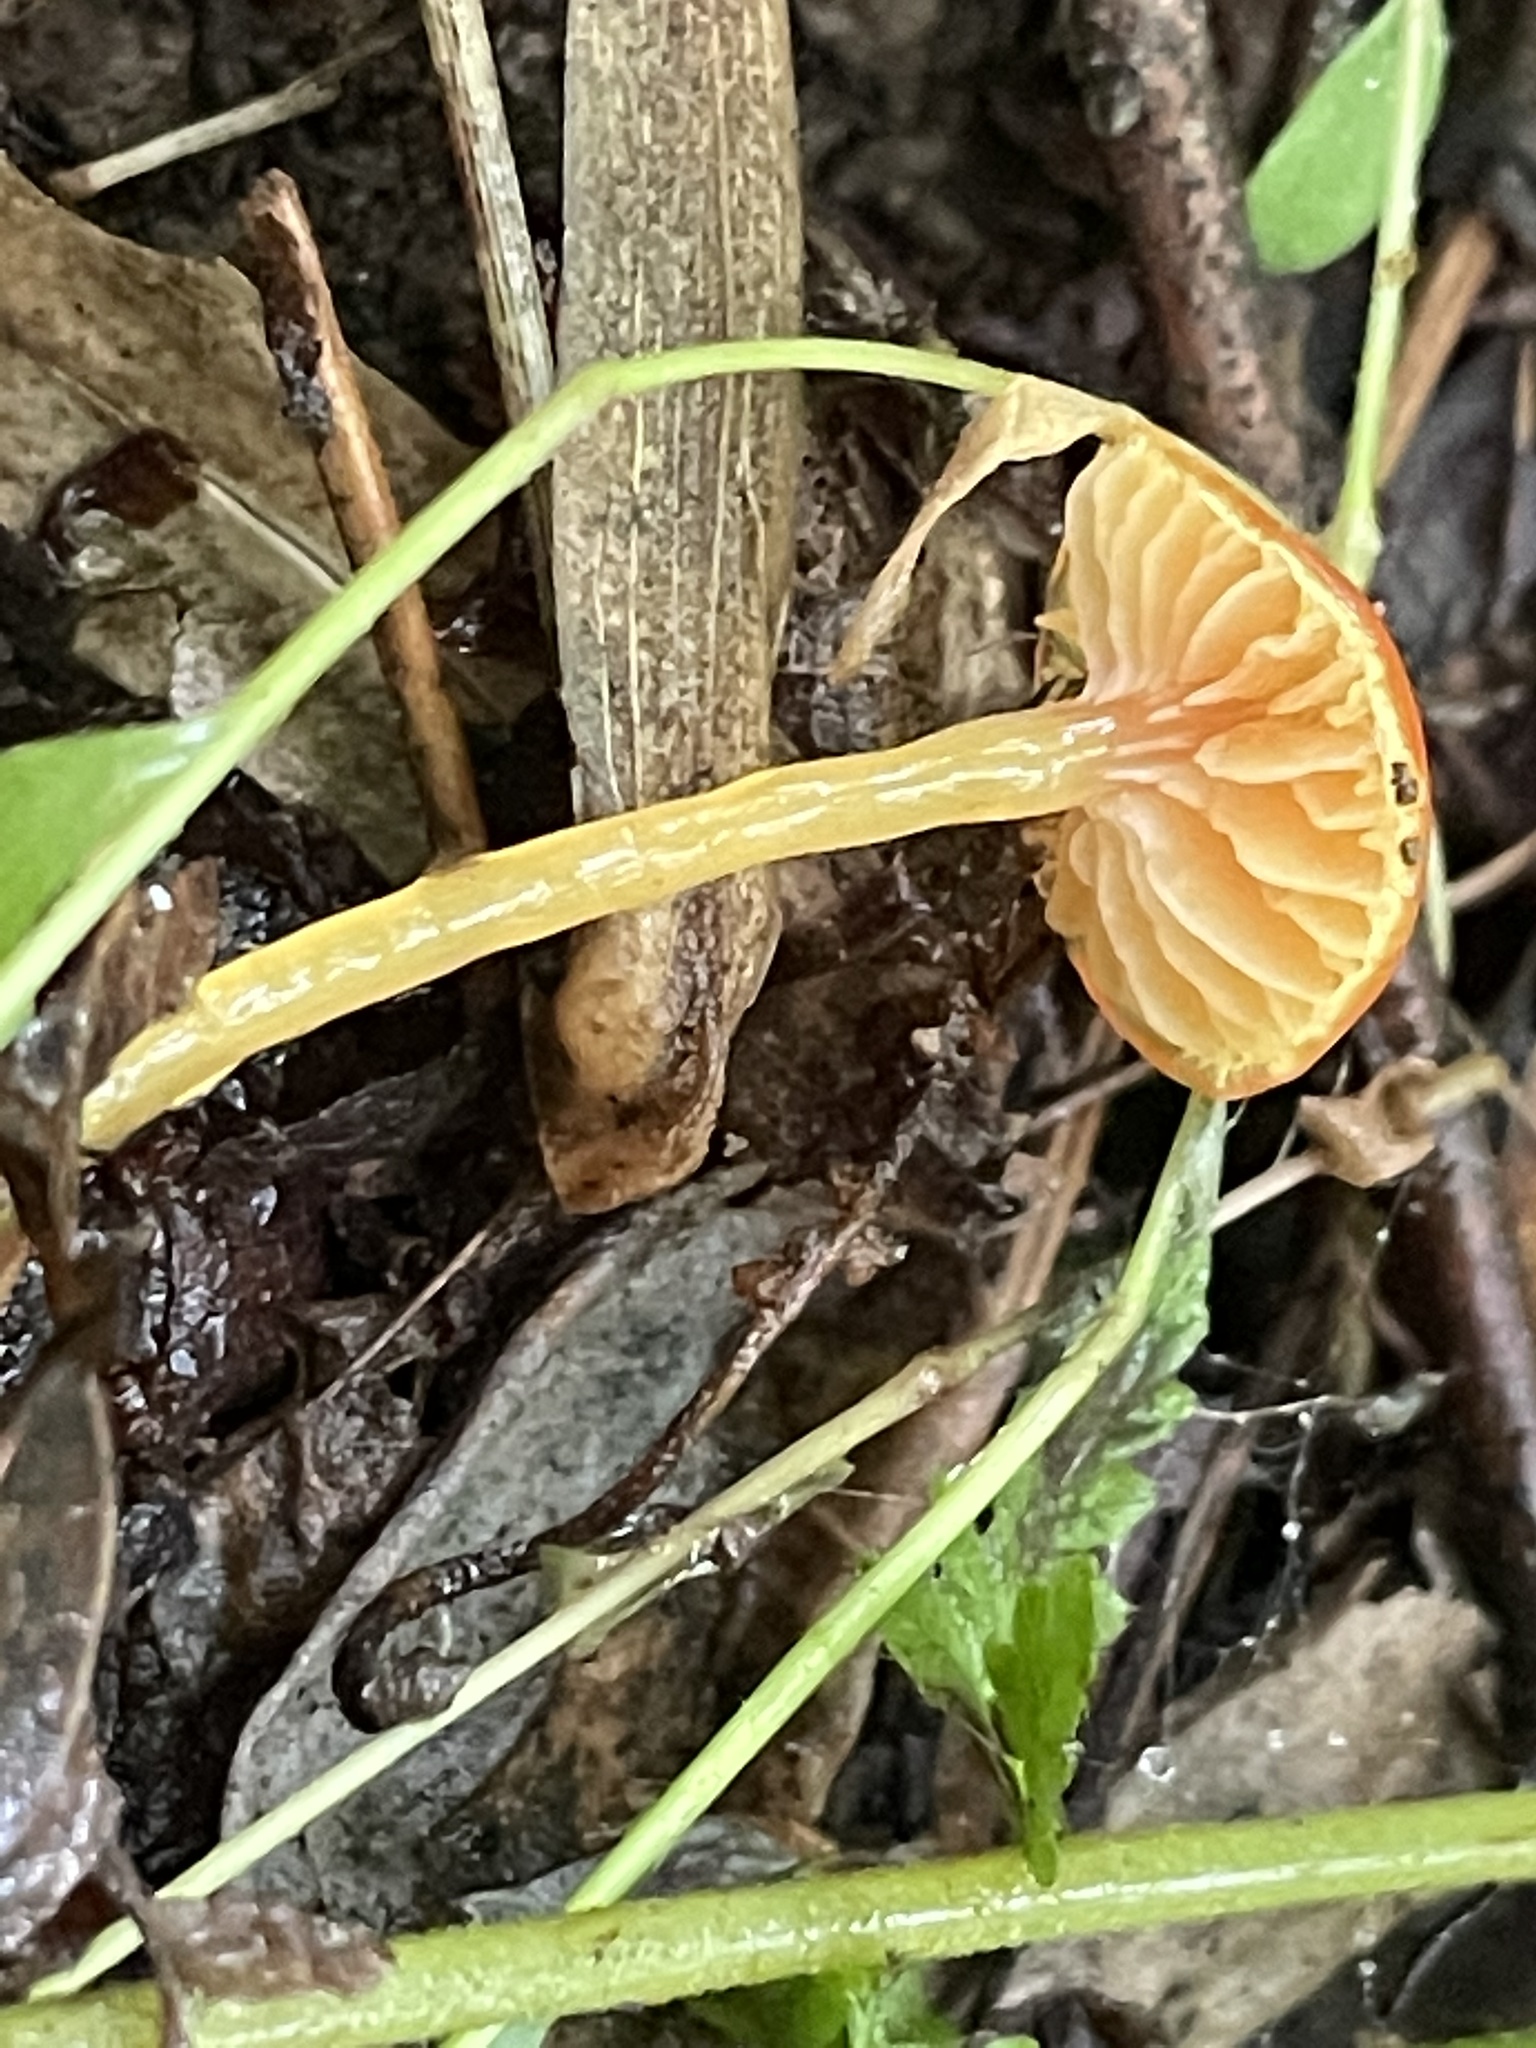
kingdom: Fungi
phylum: Basidiomycota
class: Agaricomycetes
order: Agaricales
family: Hygrophoraceae
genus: Gliophorus
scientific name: Gliophorus psittacinus
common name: Parrot wax-cap
